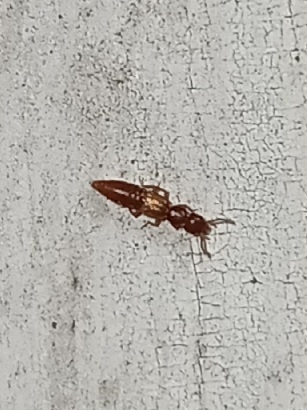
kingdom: Animalia
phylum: Arthropoda
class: Insecta
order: Coleoptera
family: Staphylinidae
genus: Hypomedon
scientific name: Hypomedon debilicornis
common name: Staph beetle
